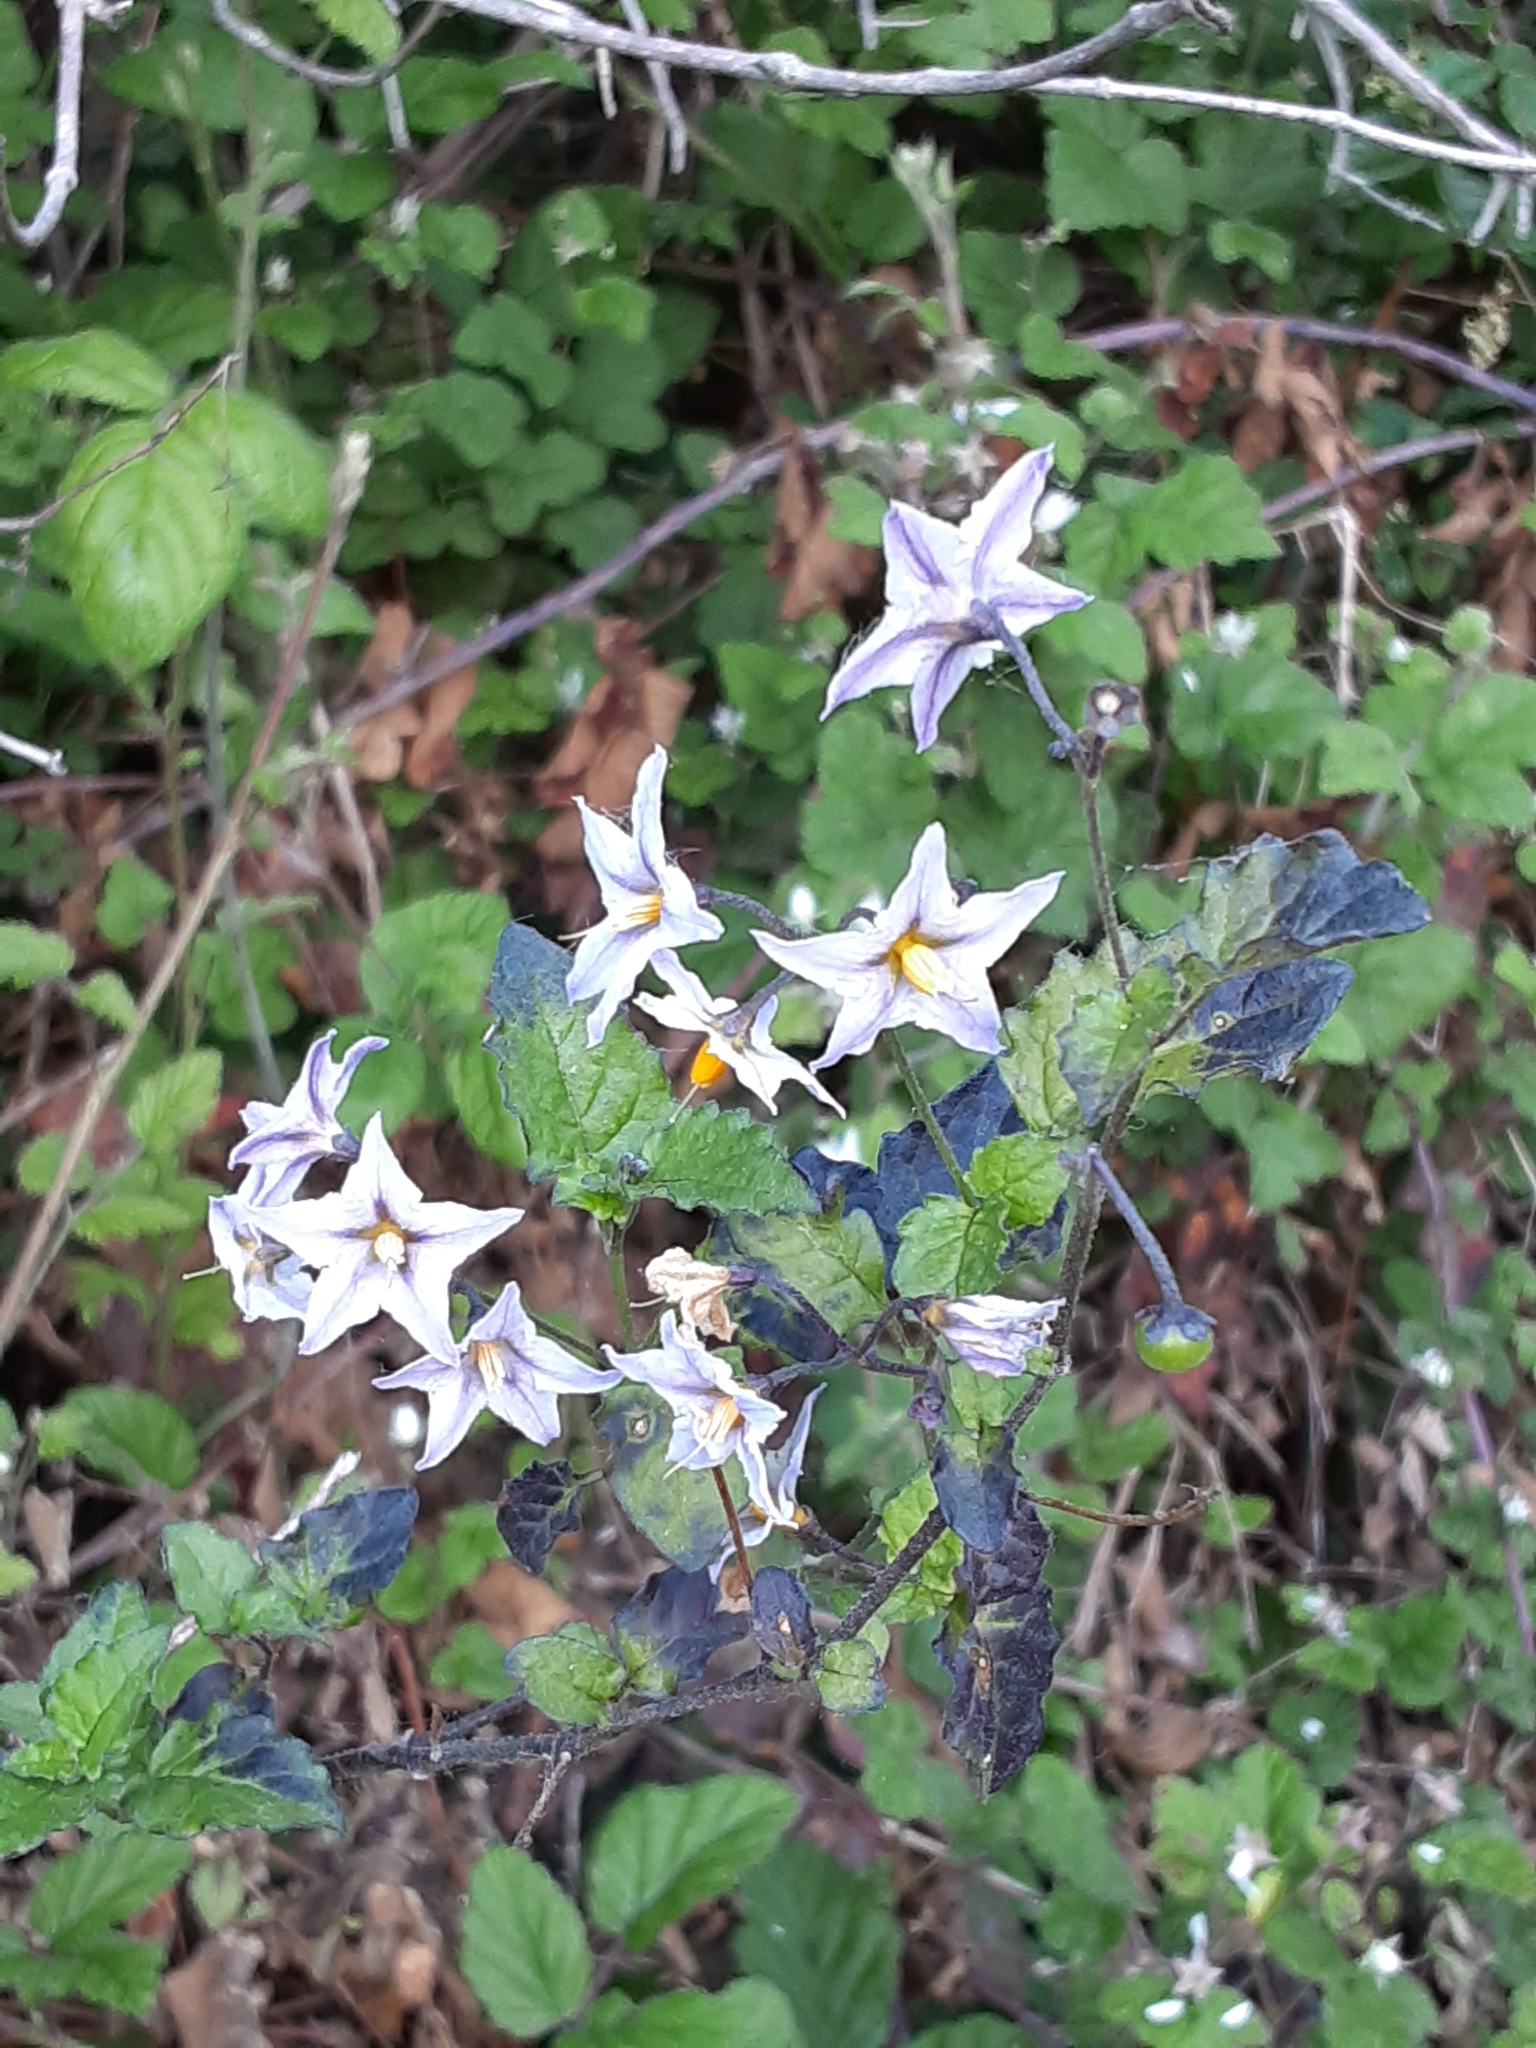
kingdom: Plantae
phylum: Tracheophyta
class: Magnoliopsida
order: Solanales
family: Solanaceae
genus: Solanum
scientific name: Solanum douglasii
